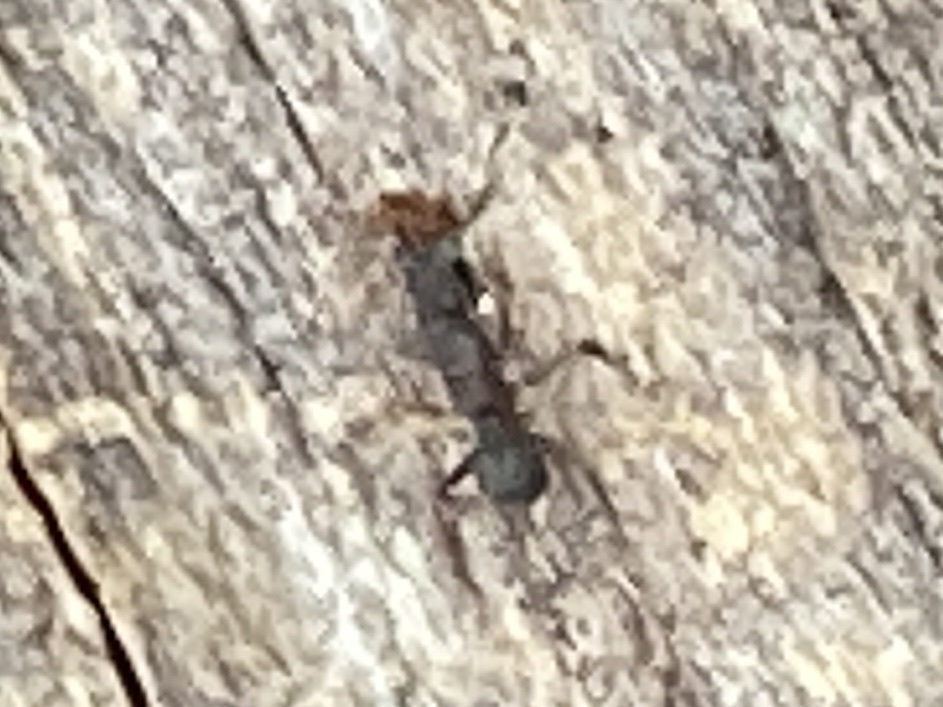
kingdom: Animalia
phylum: Arthropoda
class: Insecta
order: Hymenoptera
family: Formicidae
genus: Cyphomyrmex
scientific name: Cyphomyrmex rimosus
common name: Rimose fungus ant
